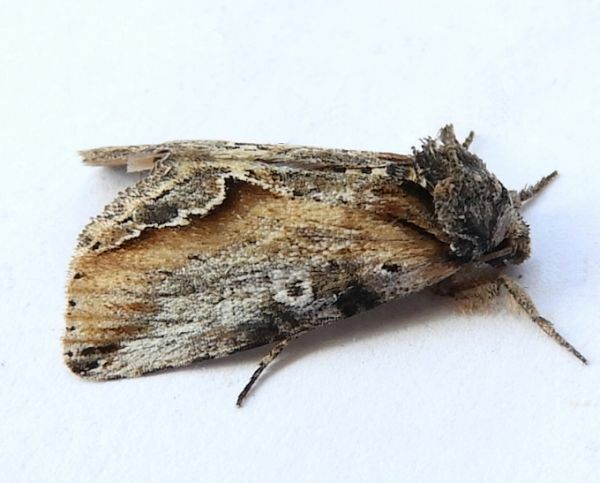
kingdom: Animalia
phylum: Arthropoda
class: Insecta
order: Lepidoptera
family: Noctuidae
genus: Prothrinax
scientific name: Prothrinax luteomedia
